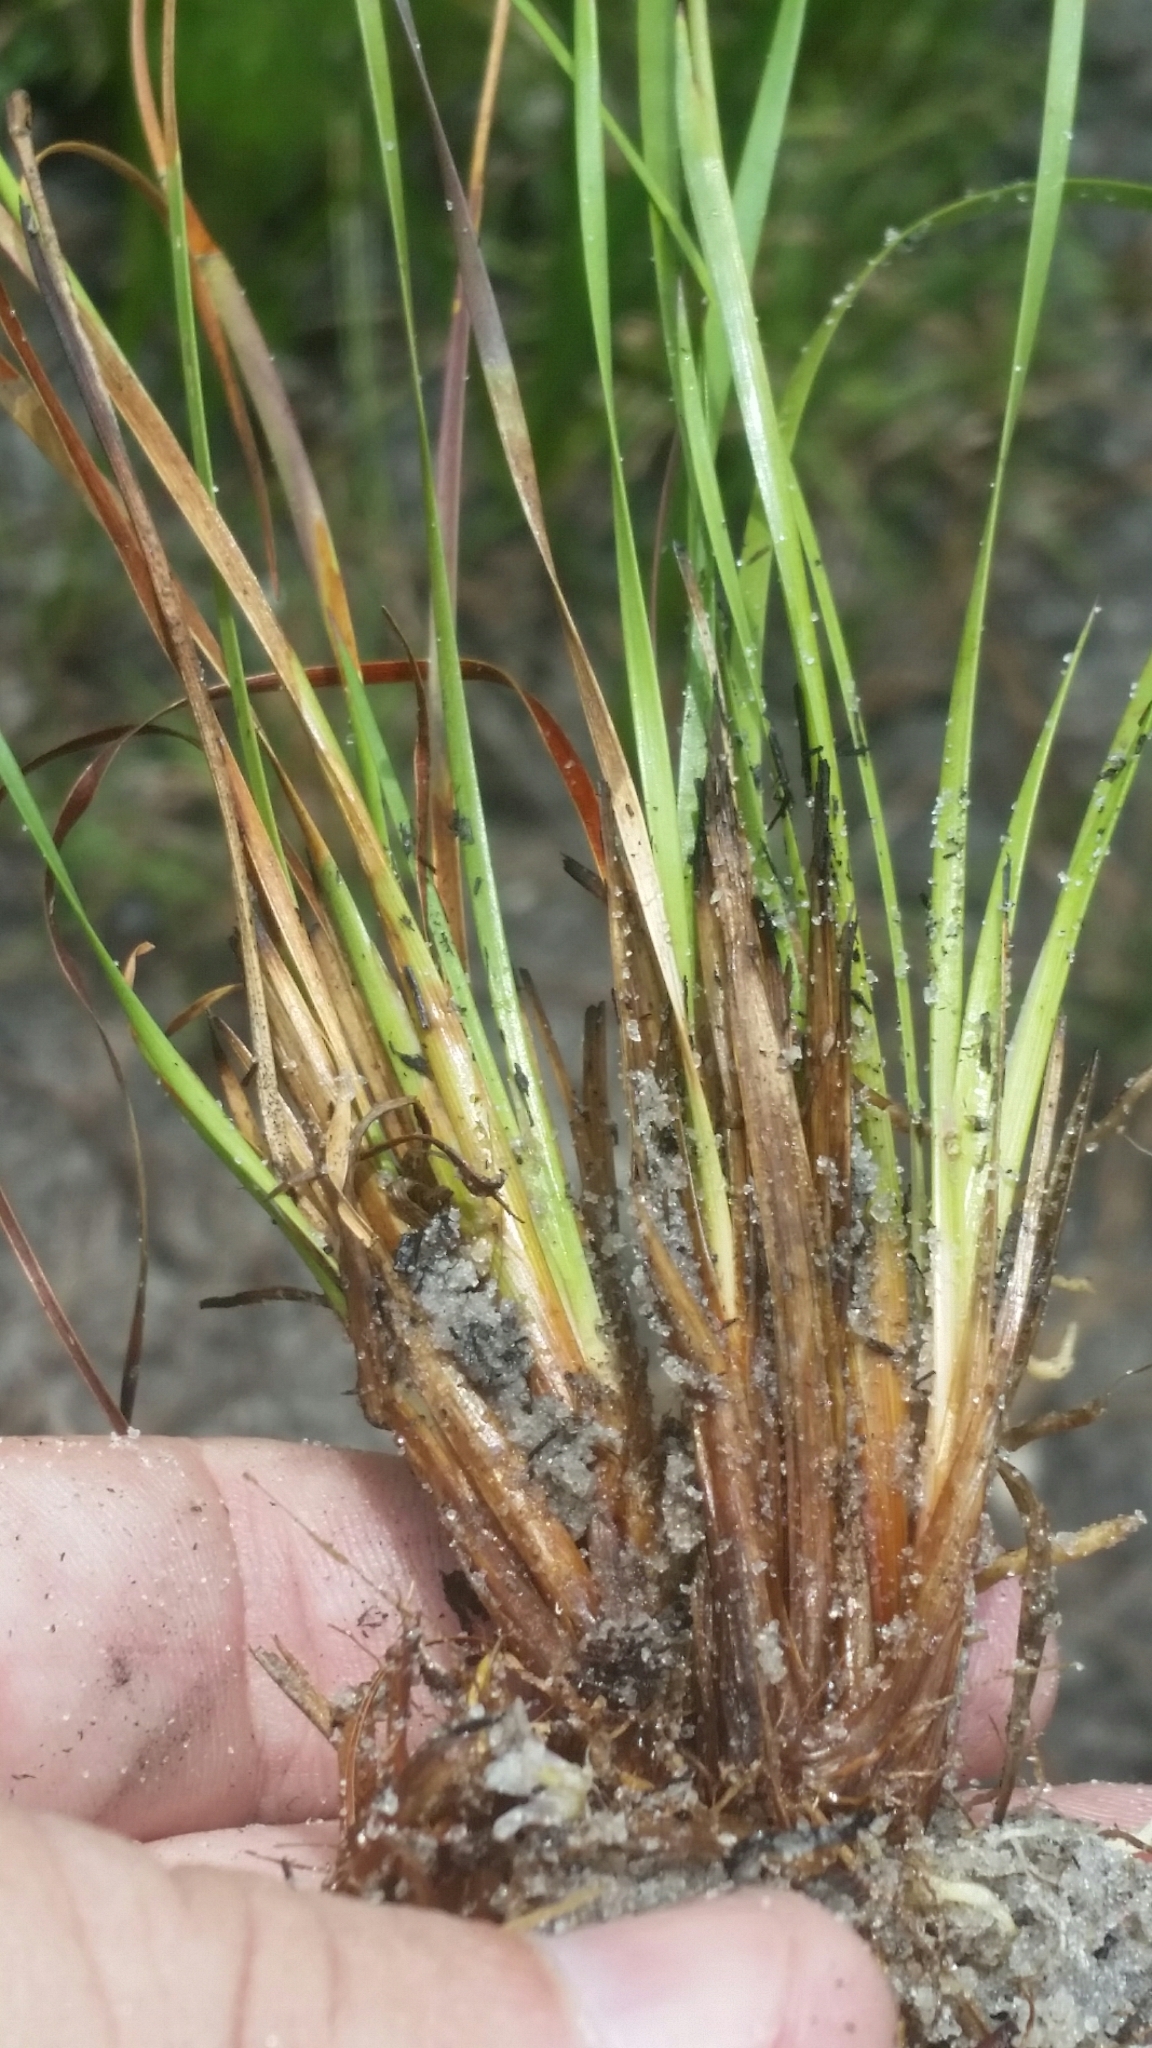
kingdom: Plantae
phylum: Tracheophyta
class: Liliopsida
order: Poales
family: Xyridaceae
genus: Xyris
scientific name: Xyris elliottii
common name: Elliot's yelloweyed grass
